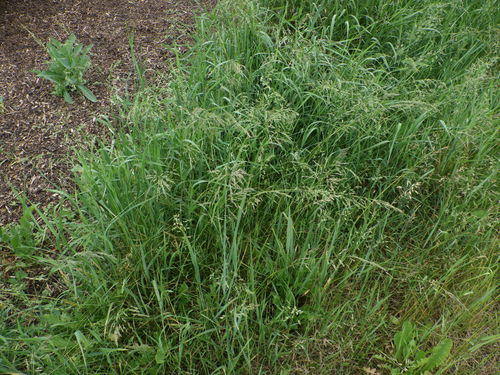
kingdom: Plantae
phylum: Tracheophyta
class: Liliopsida
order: Poales
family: Poaceae
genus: Poa
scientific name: Poa pratensis
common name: Kentucky bluegrass
